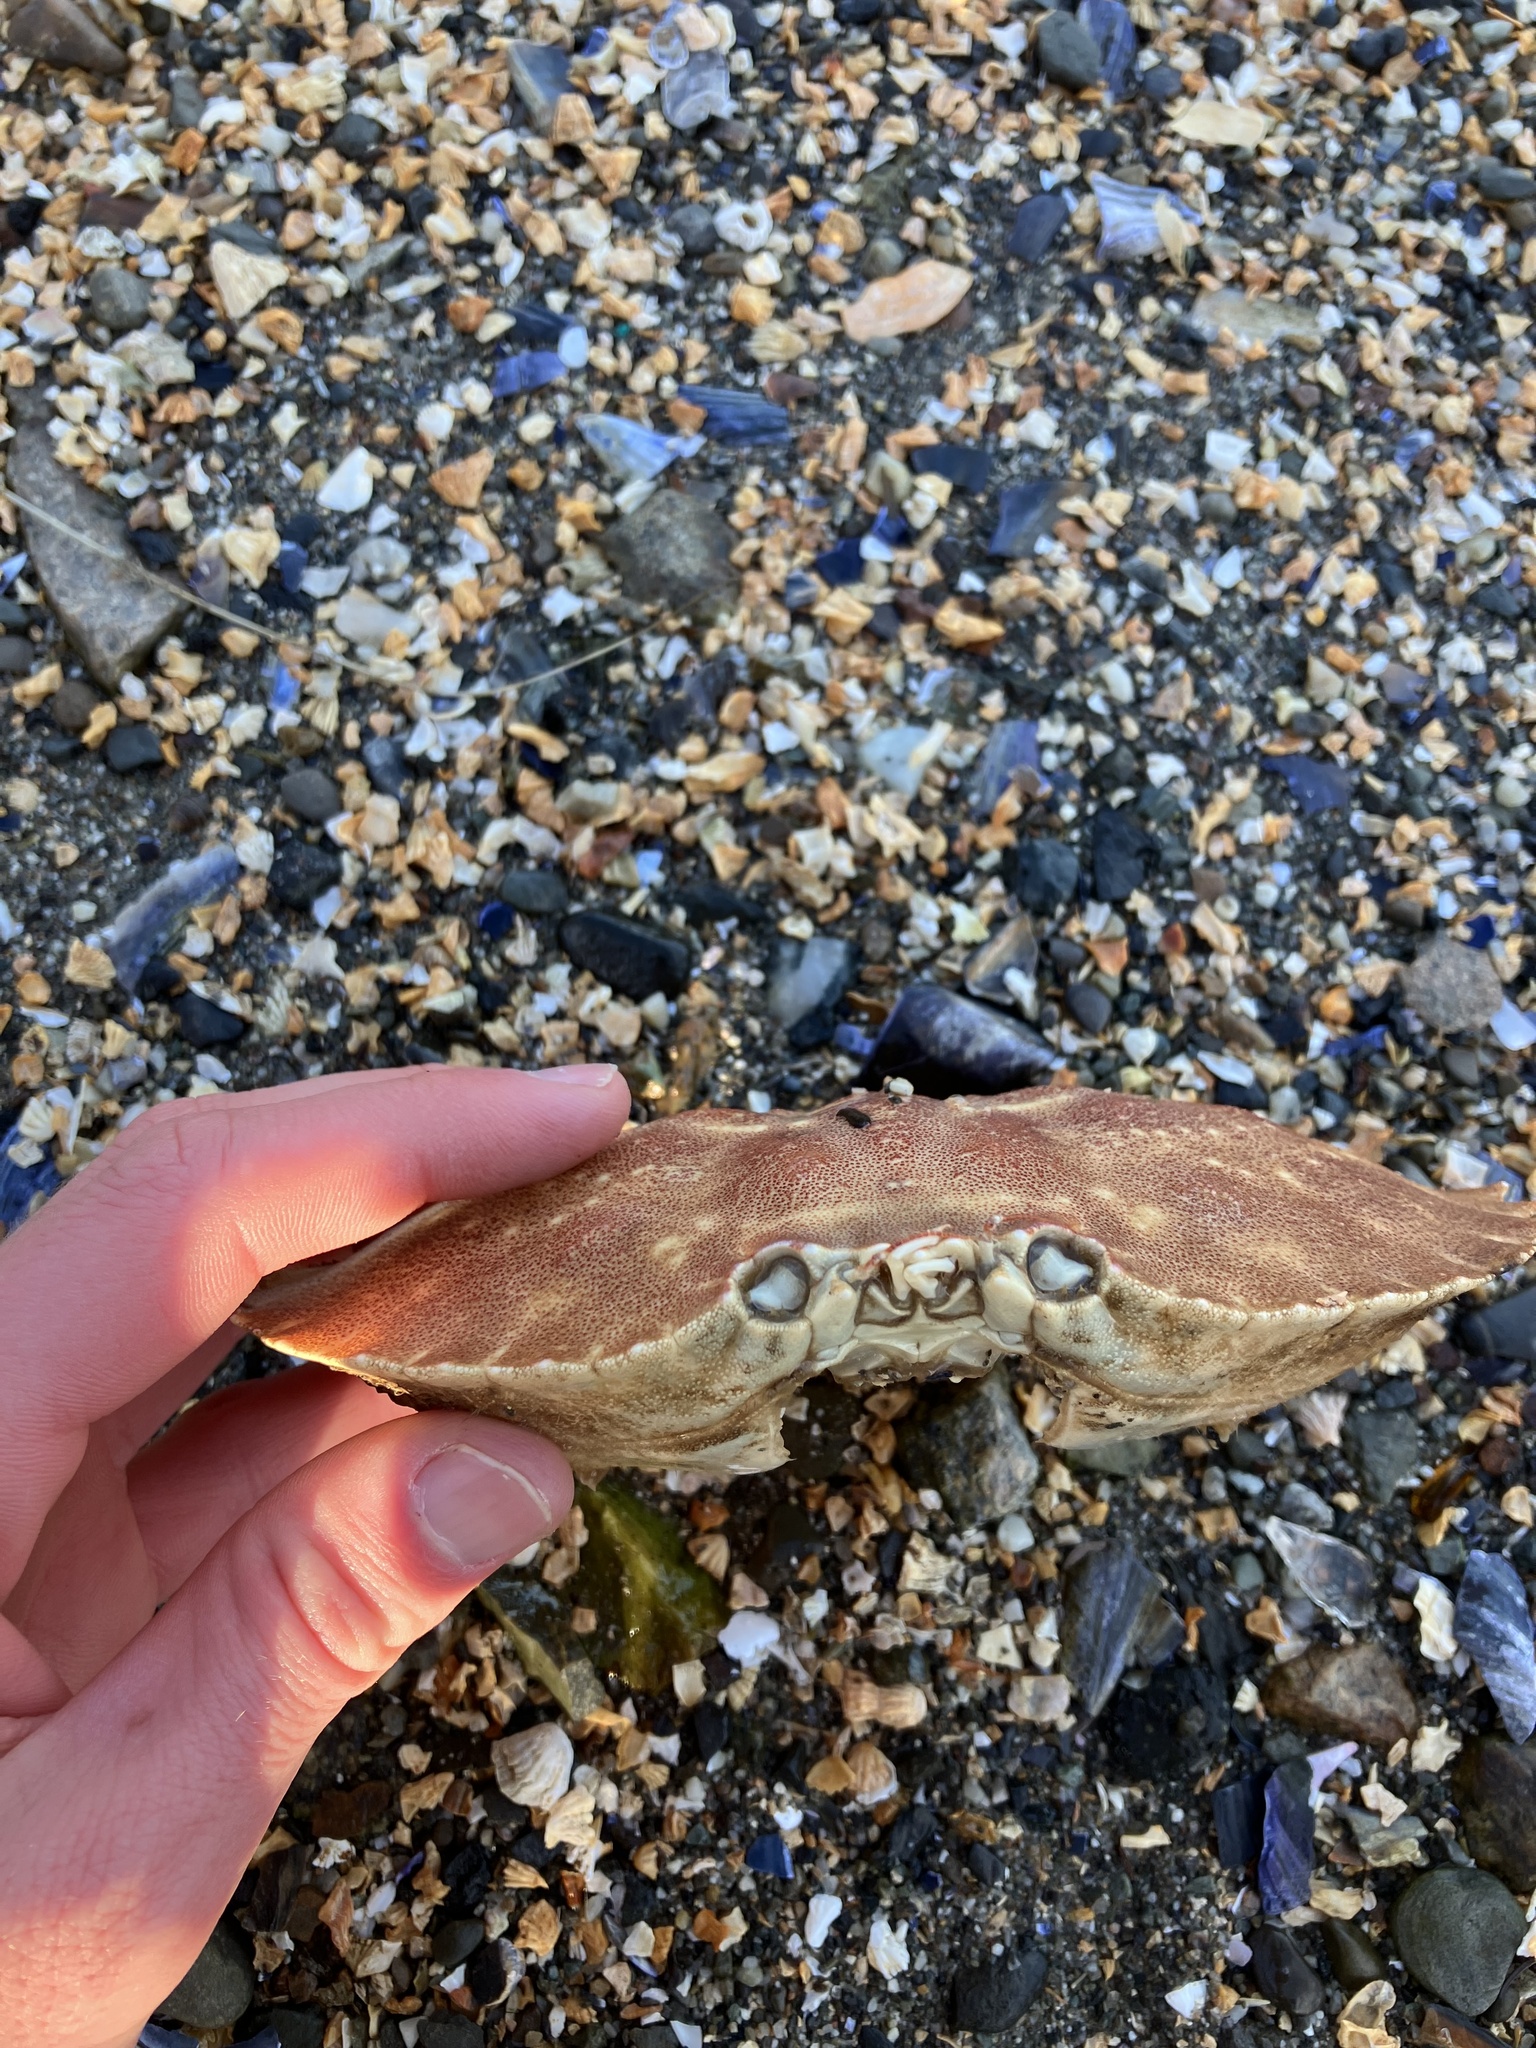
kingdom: Animalia
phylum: Arthropoda
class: Malacostraca
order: Decapoda
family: Cancridae
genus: Cancer
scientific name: Cancer borealis
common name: Jonah crab
